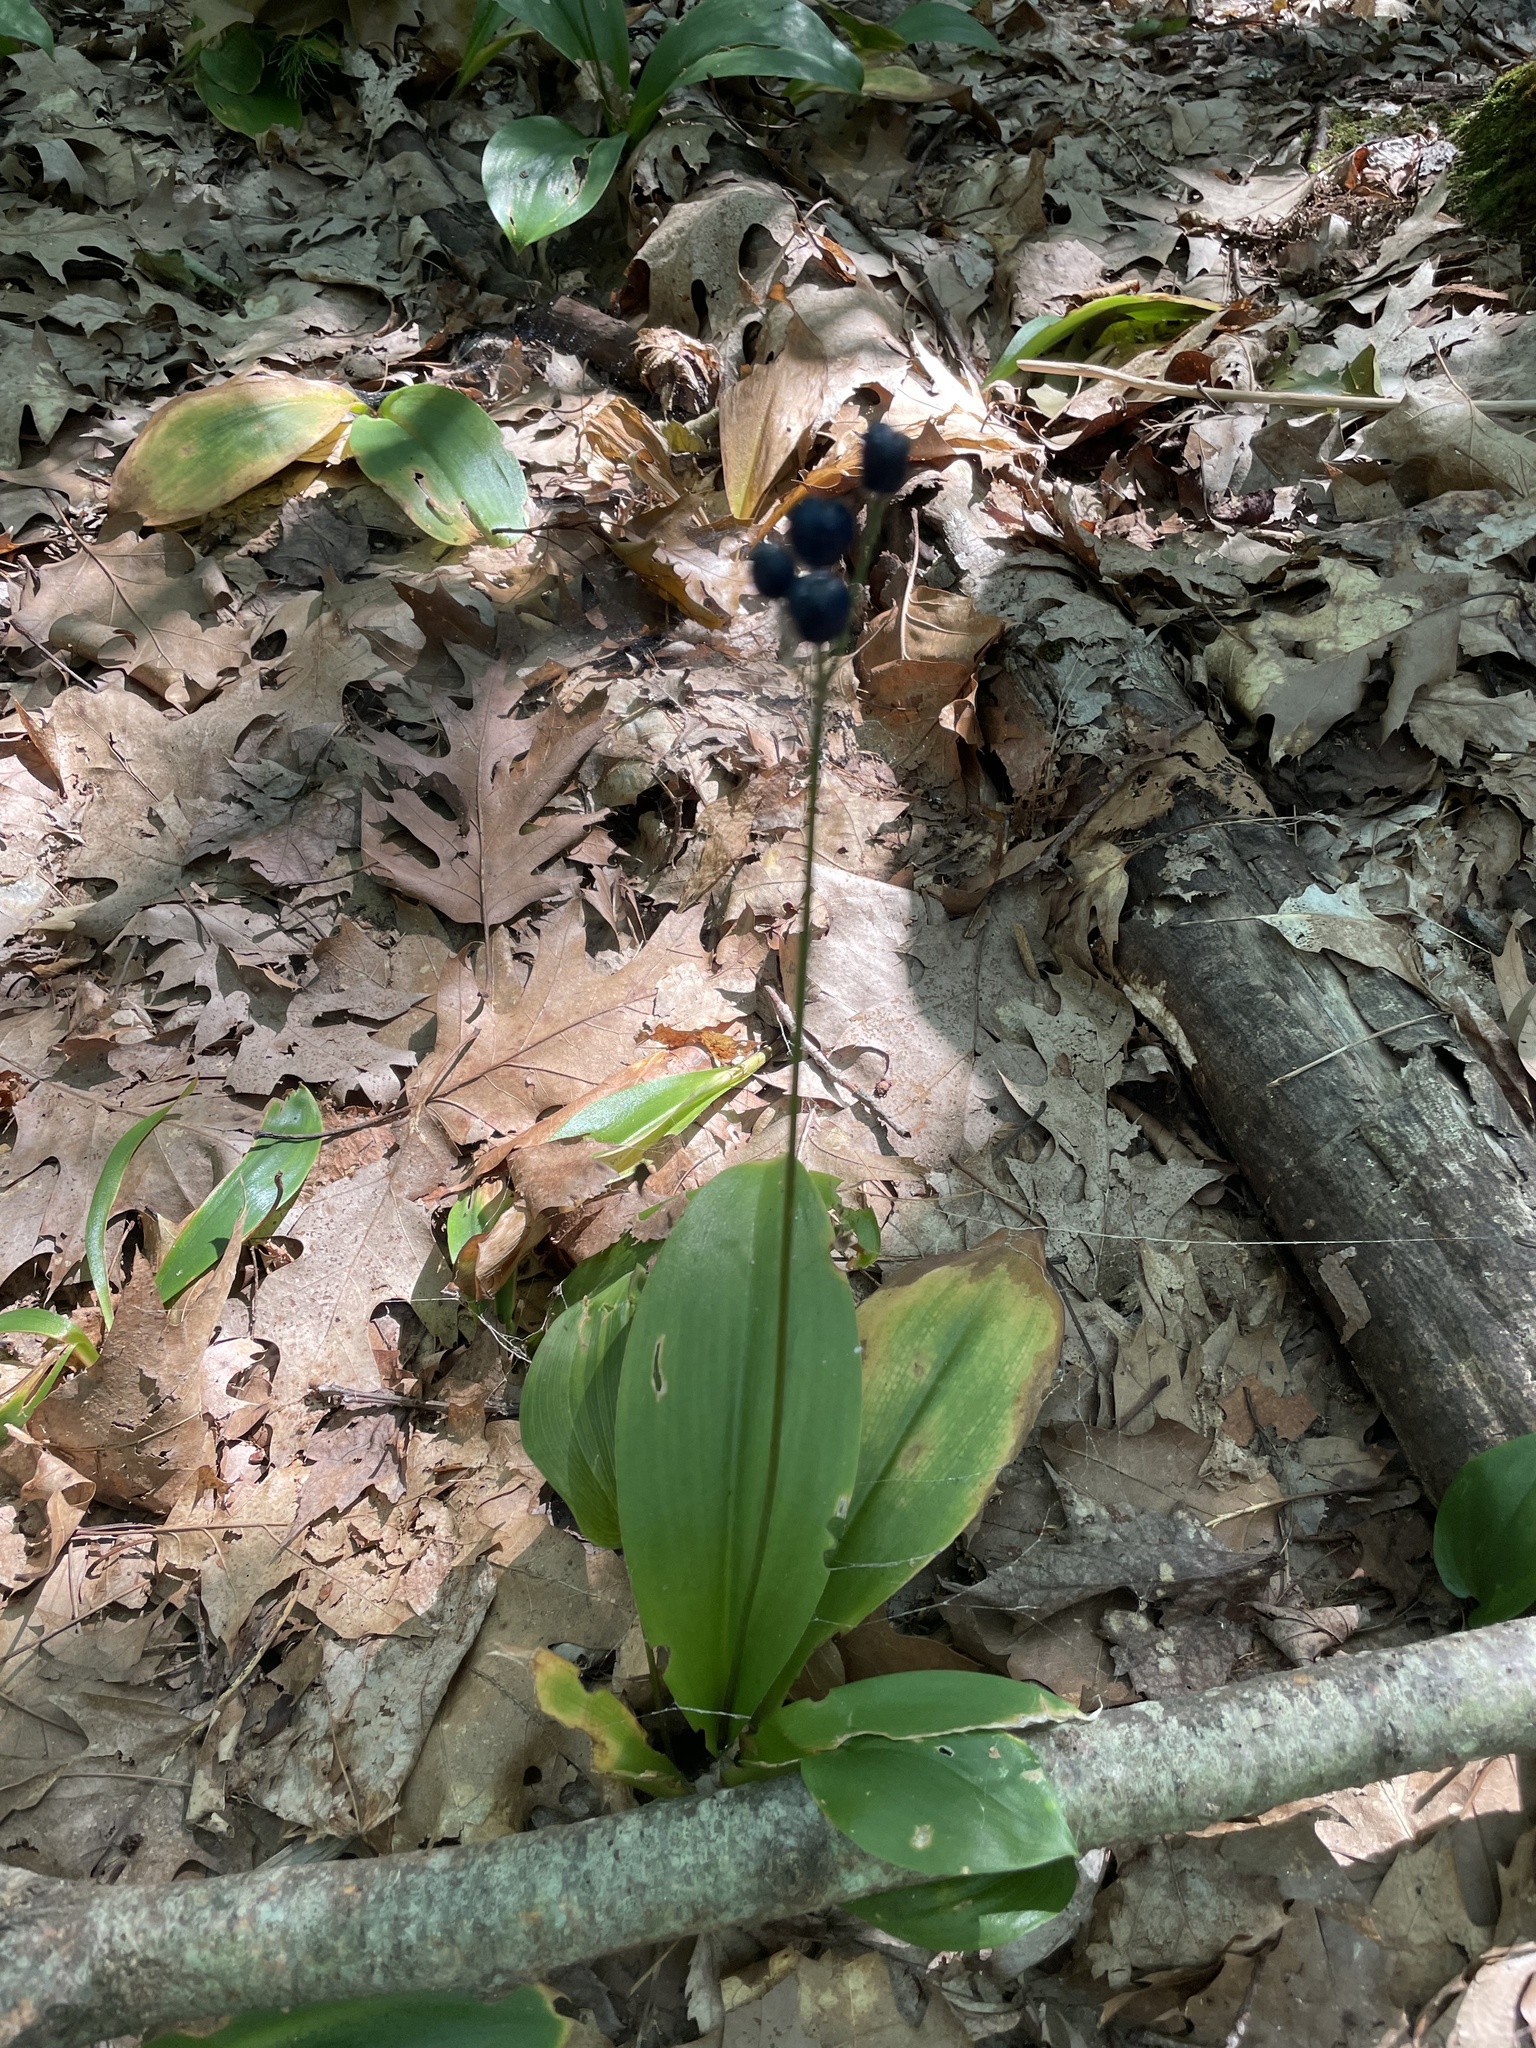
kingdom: Plantae
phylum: Tracheophyta
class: Liliopsida
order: Liliales
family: Liliaceae
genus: Clintonia
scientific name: Clintonia borealis
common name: Yellow clintonia
